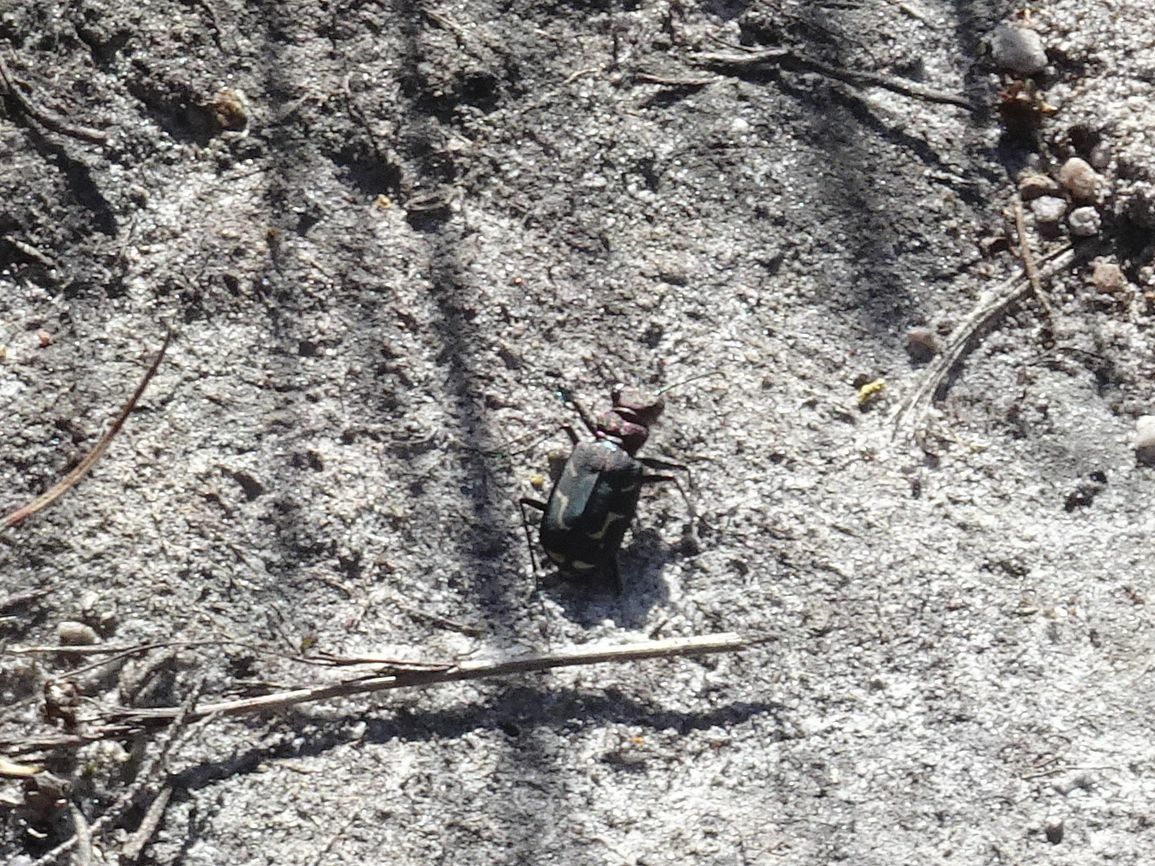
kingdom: Animalia
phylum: Arthropoda
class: Insecta
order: Coleoptera
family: Carabidae
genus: Cicindela
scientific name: Cicindela lurida
